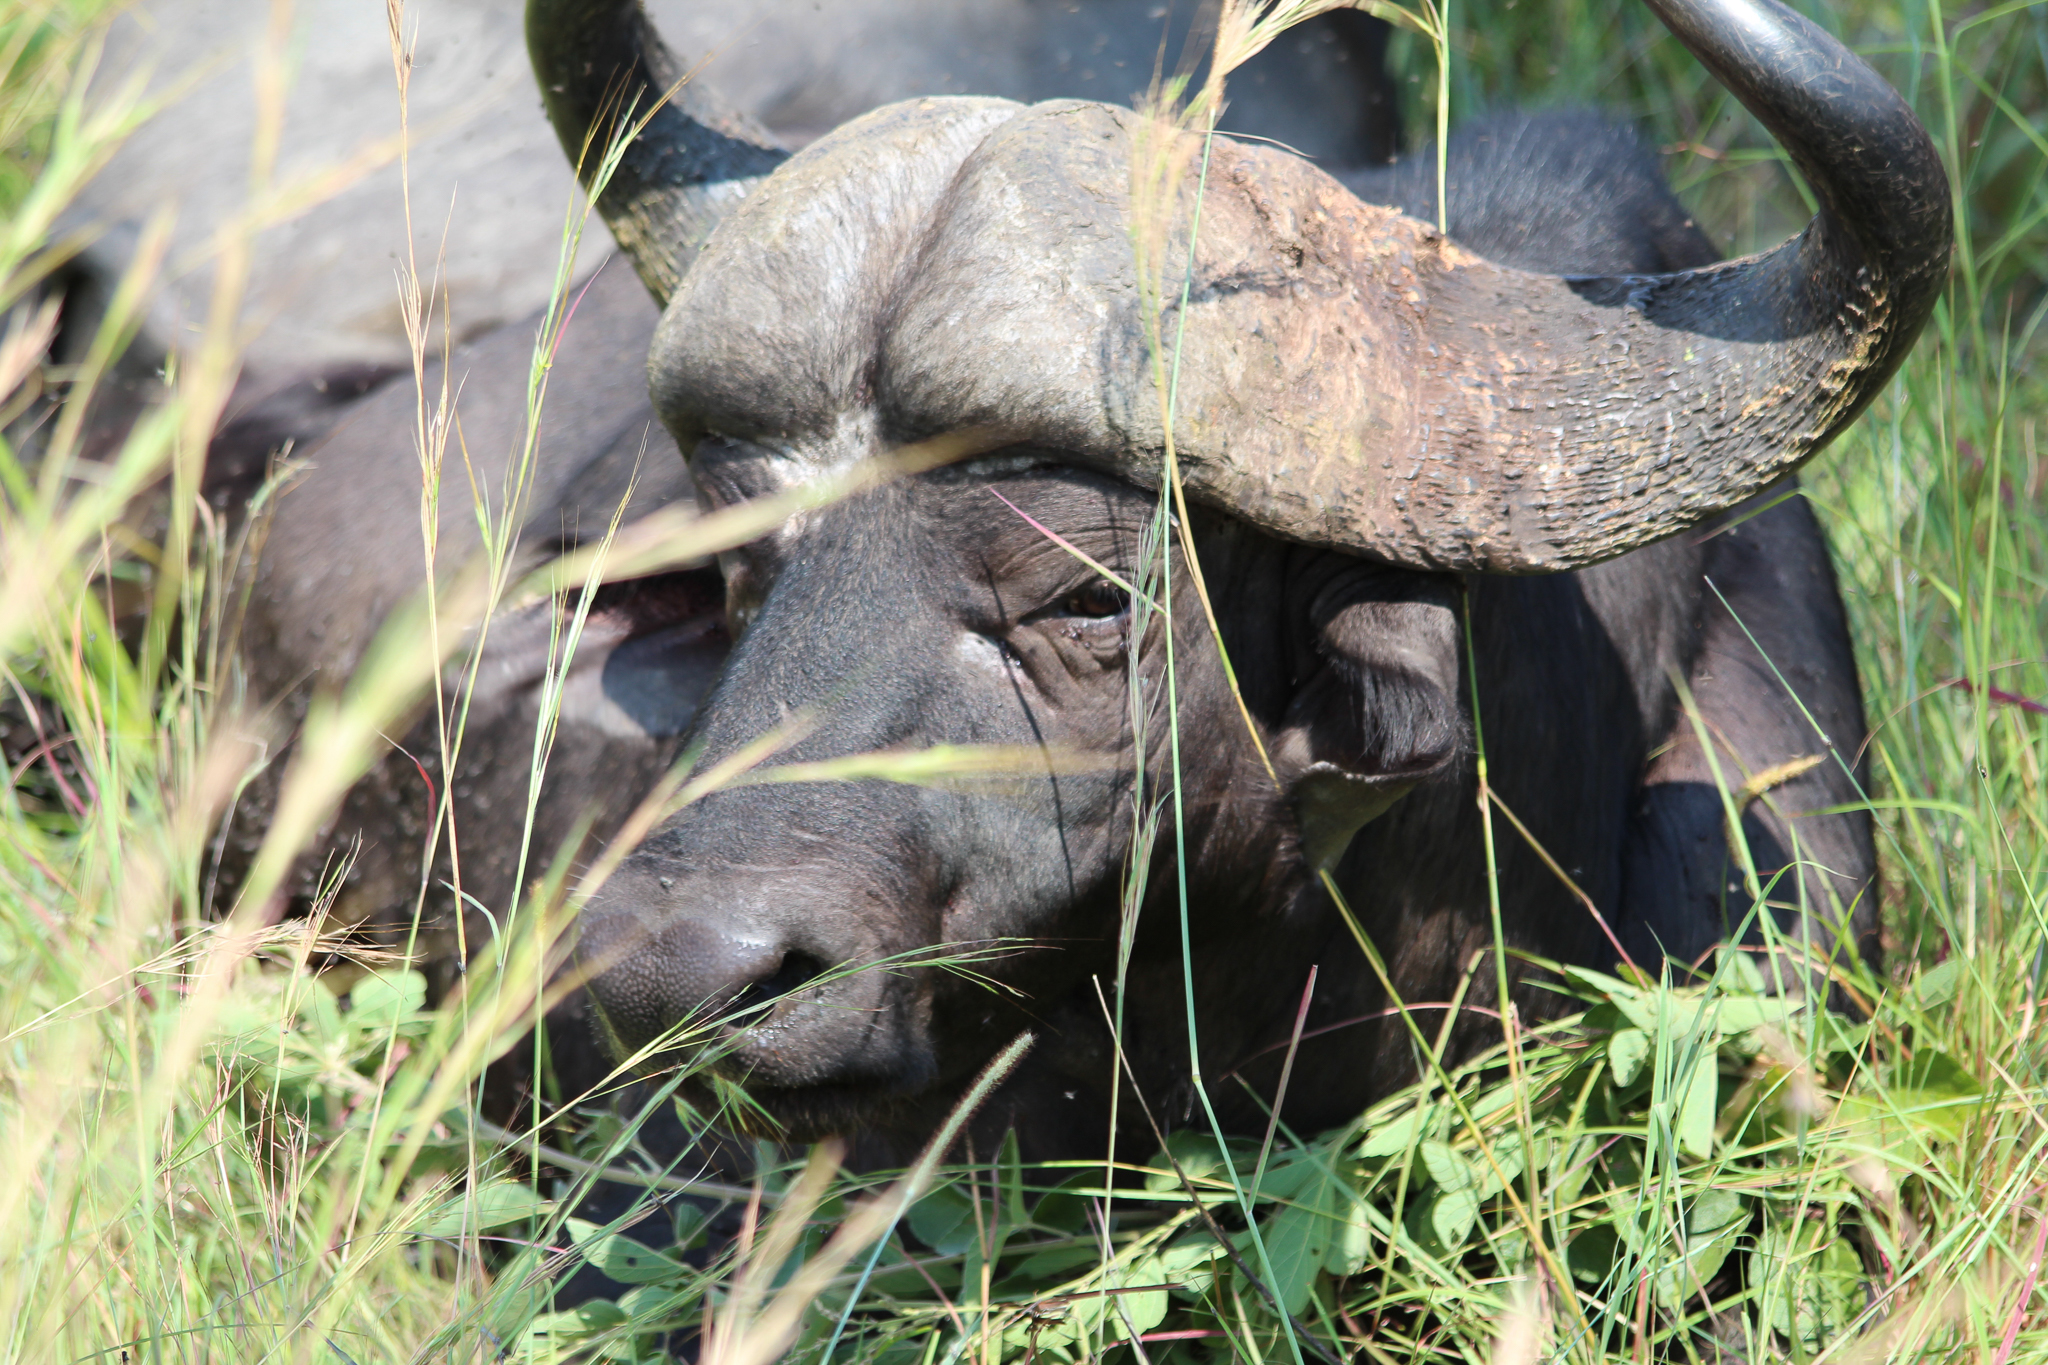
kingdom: Animalia
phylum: Chordata
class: Mammalia
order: Artiodactyla
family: Bovidae
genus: Syncerus
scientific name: Syncerus caffer
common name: African buffalo
